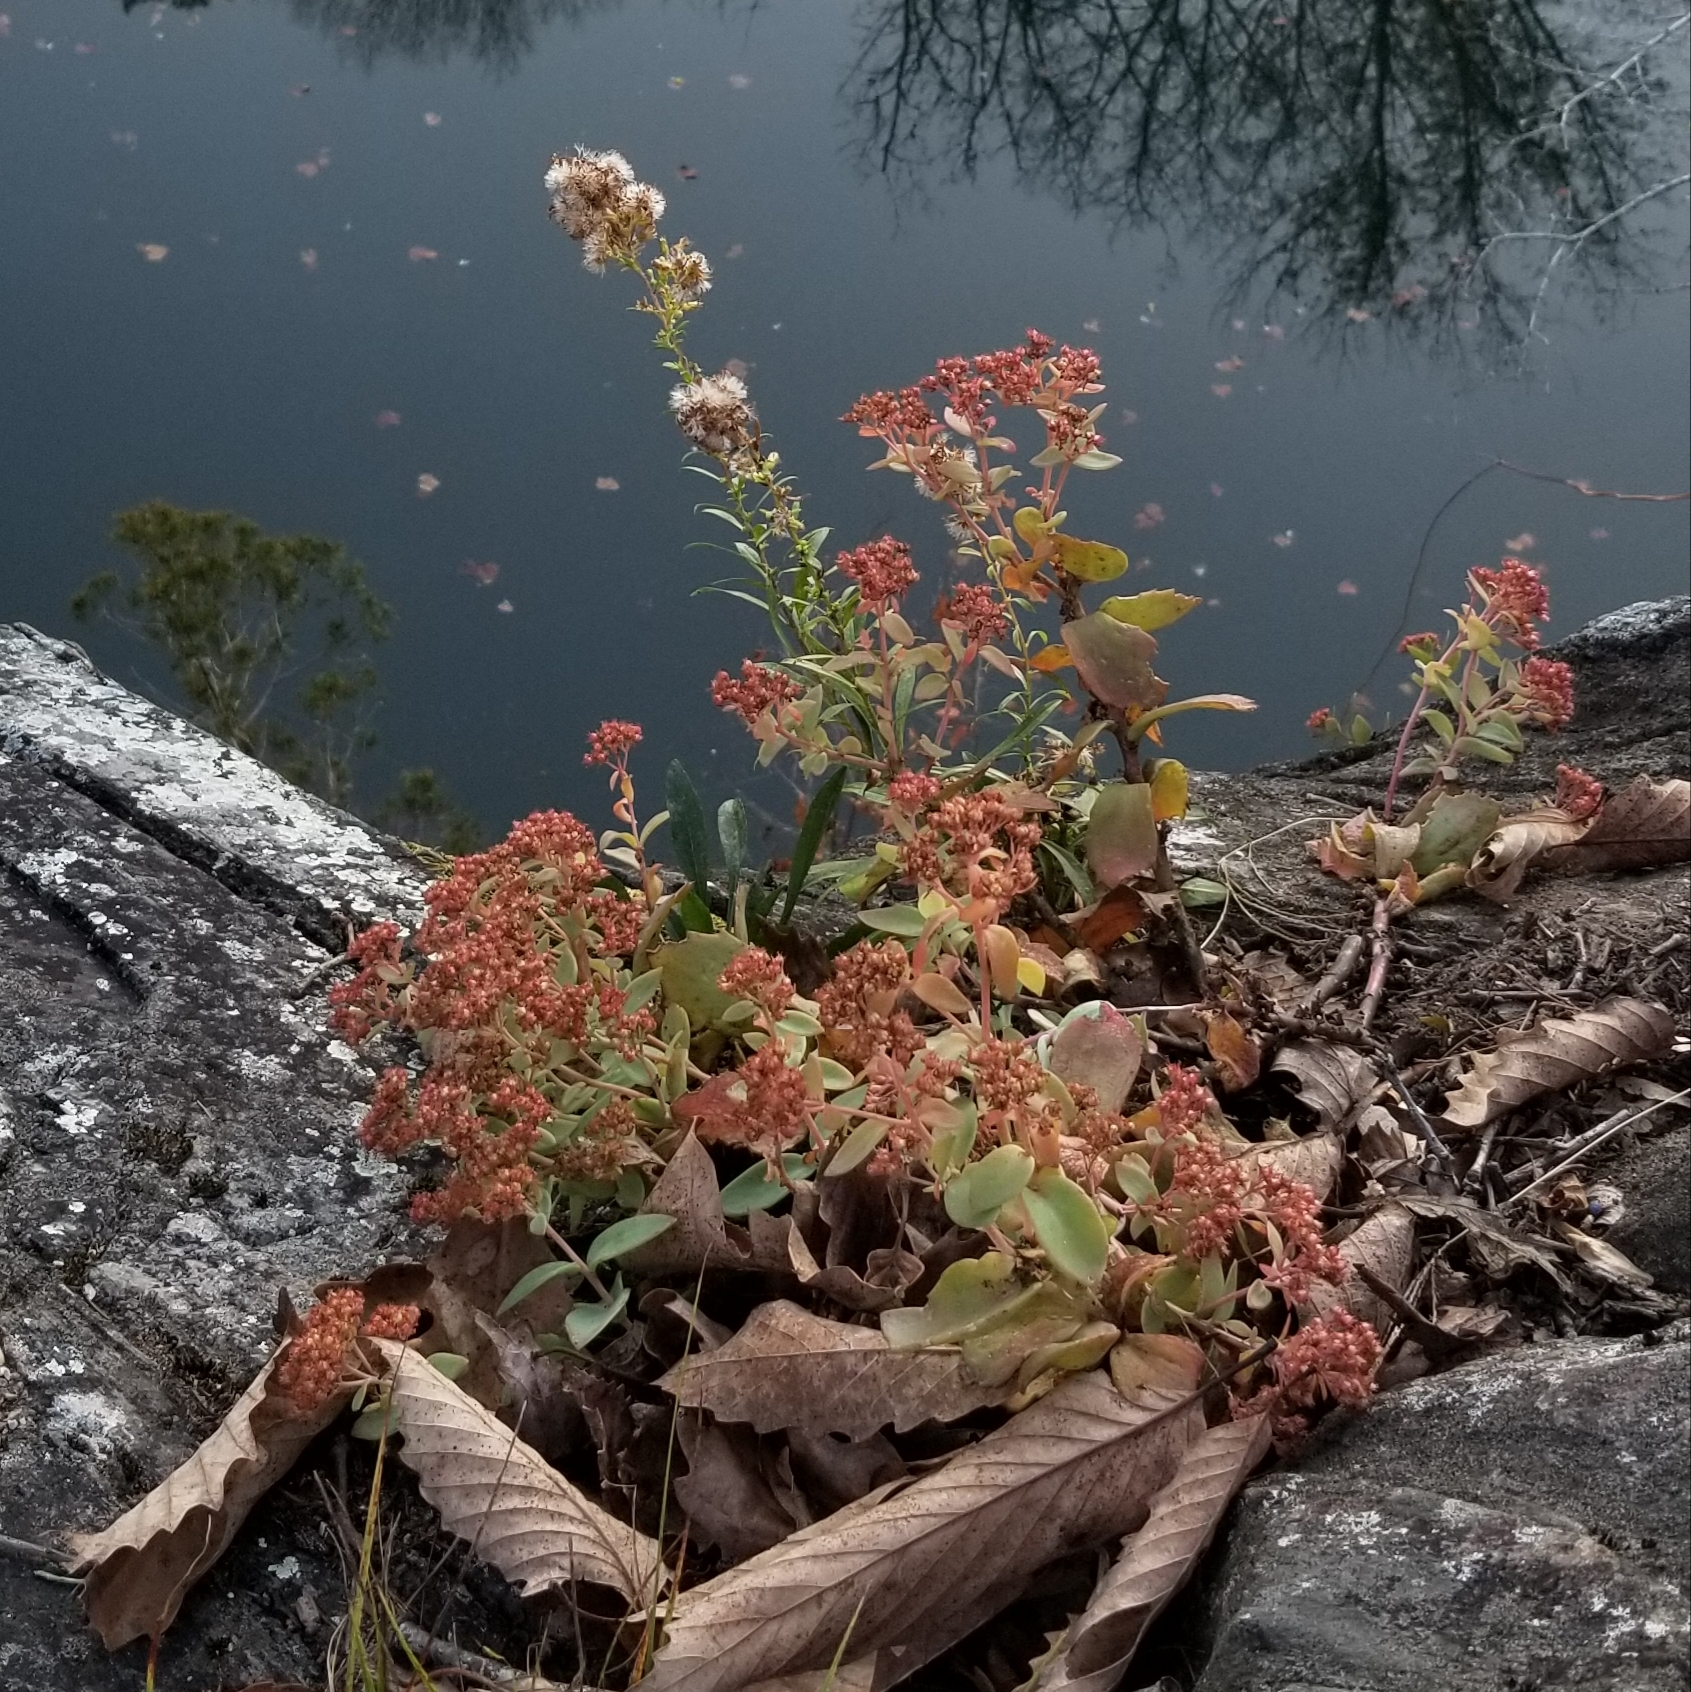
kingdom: Plantae
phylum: Tracheophyta
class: Magnoliopsida
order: Saxifragales
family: Crassulaceae
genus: Hylotelephium
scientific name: Hylotelephium telephioides
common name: Allegheny stonecrop
